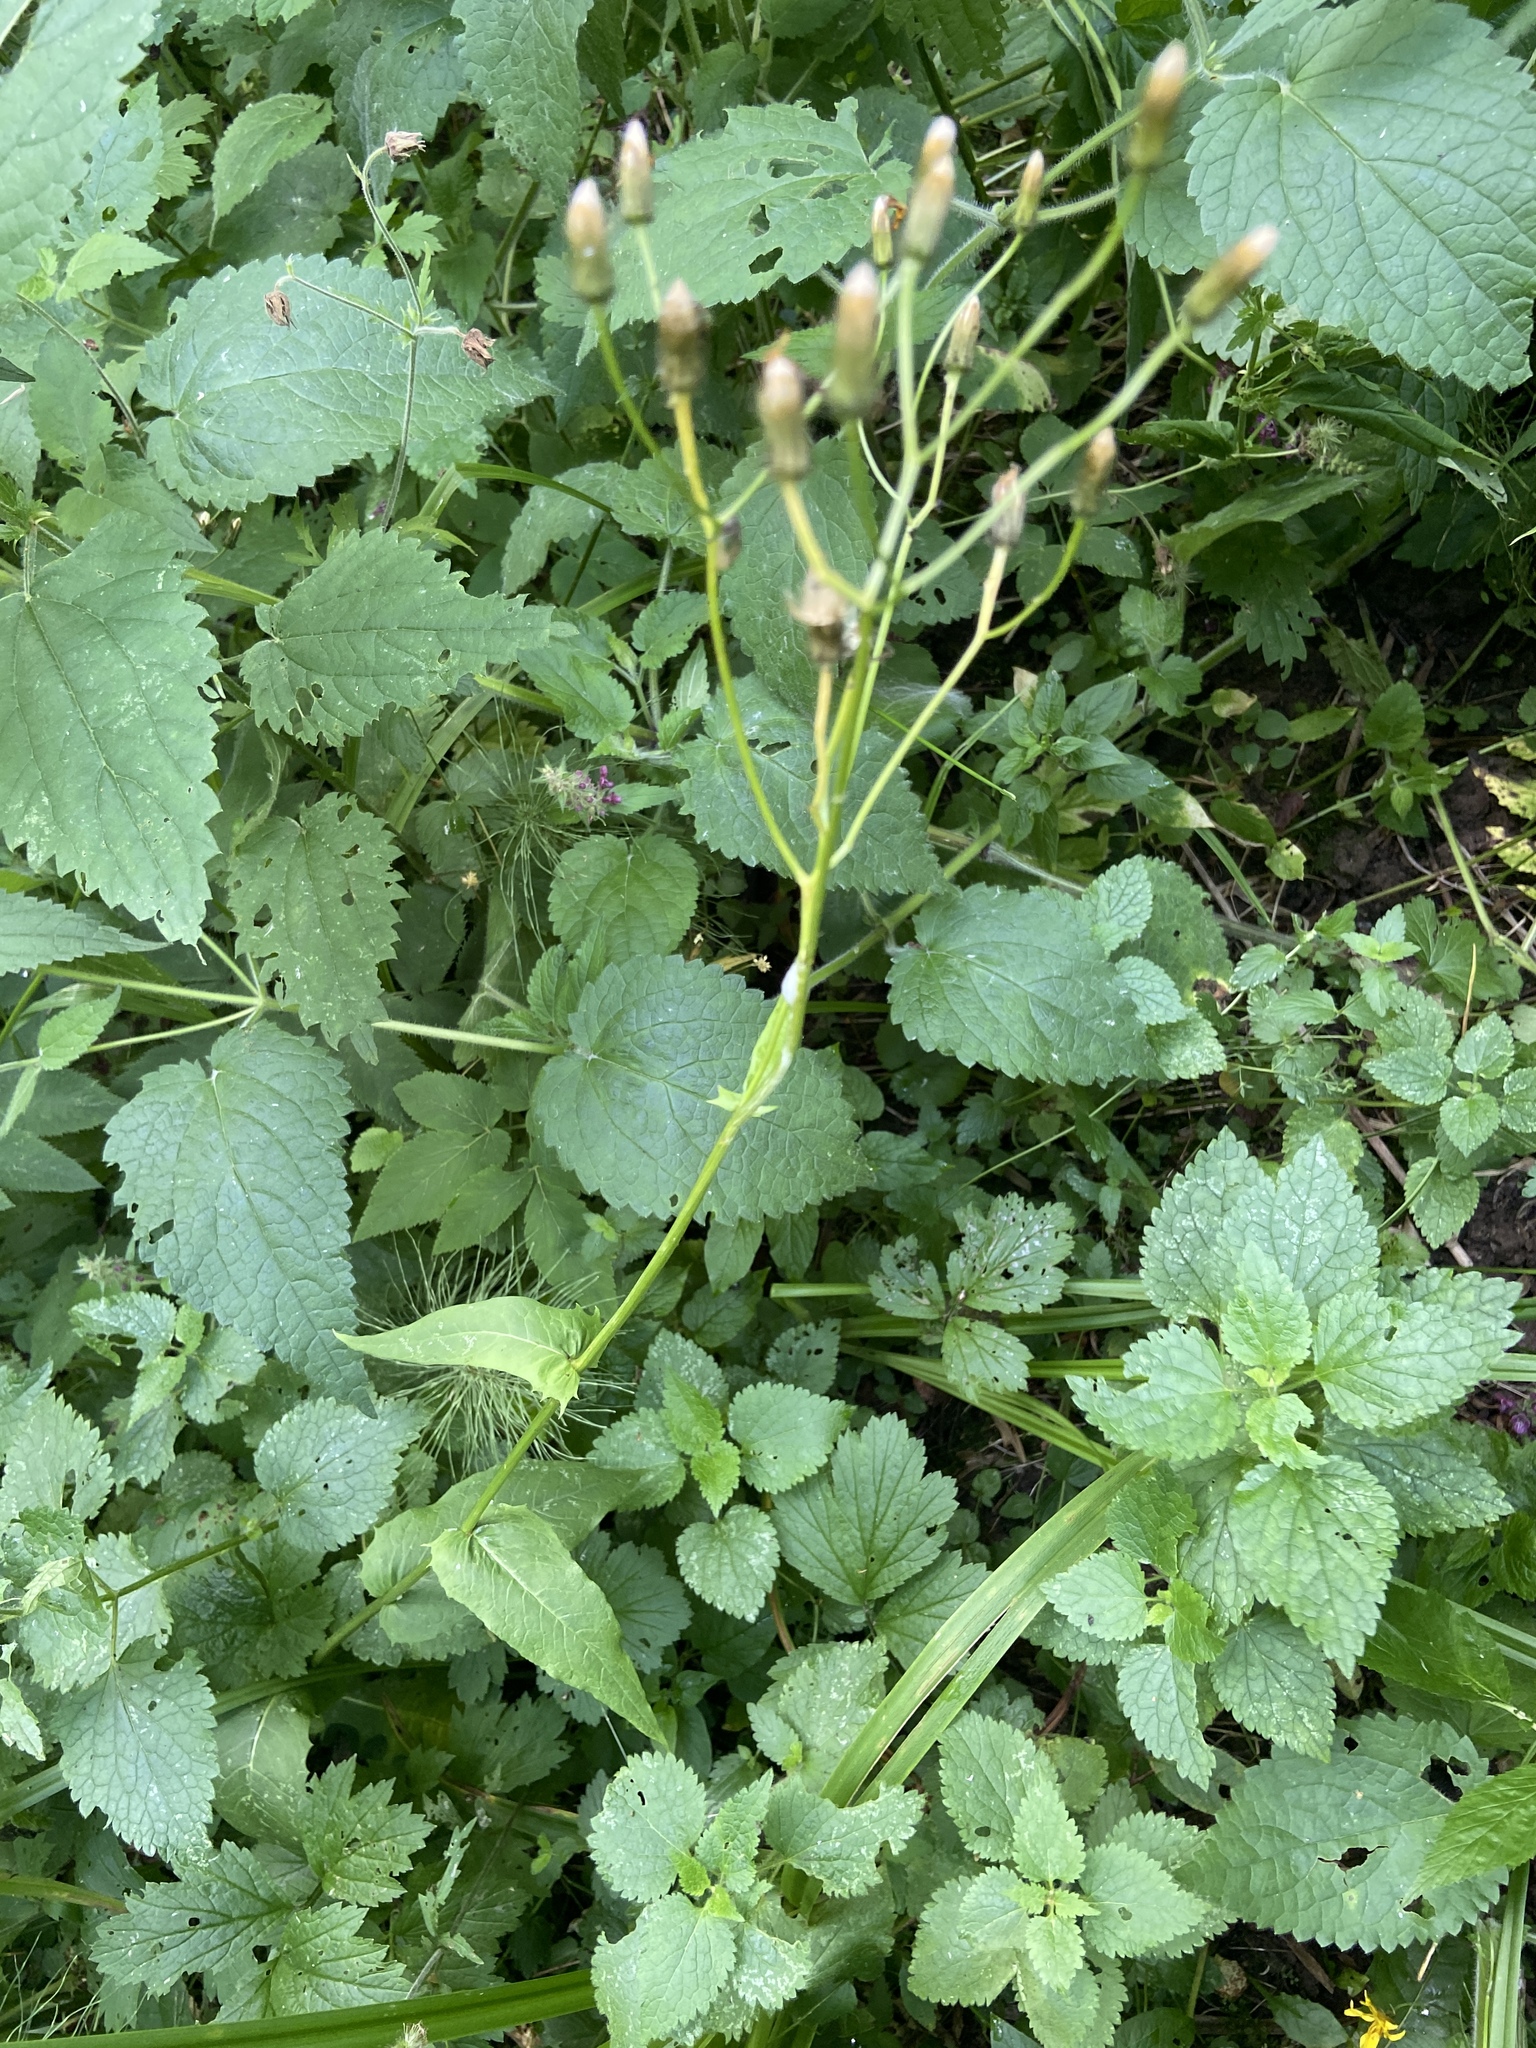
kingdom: Plantae
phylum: Tracheophyta
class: Magnoliopsida
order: Asterales
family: Asteraceae
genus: Crepis
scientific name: Crepis paludosa
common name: Marsh hawk's-beard
